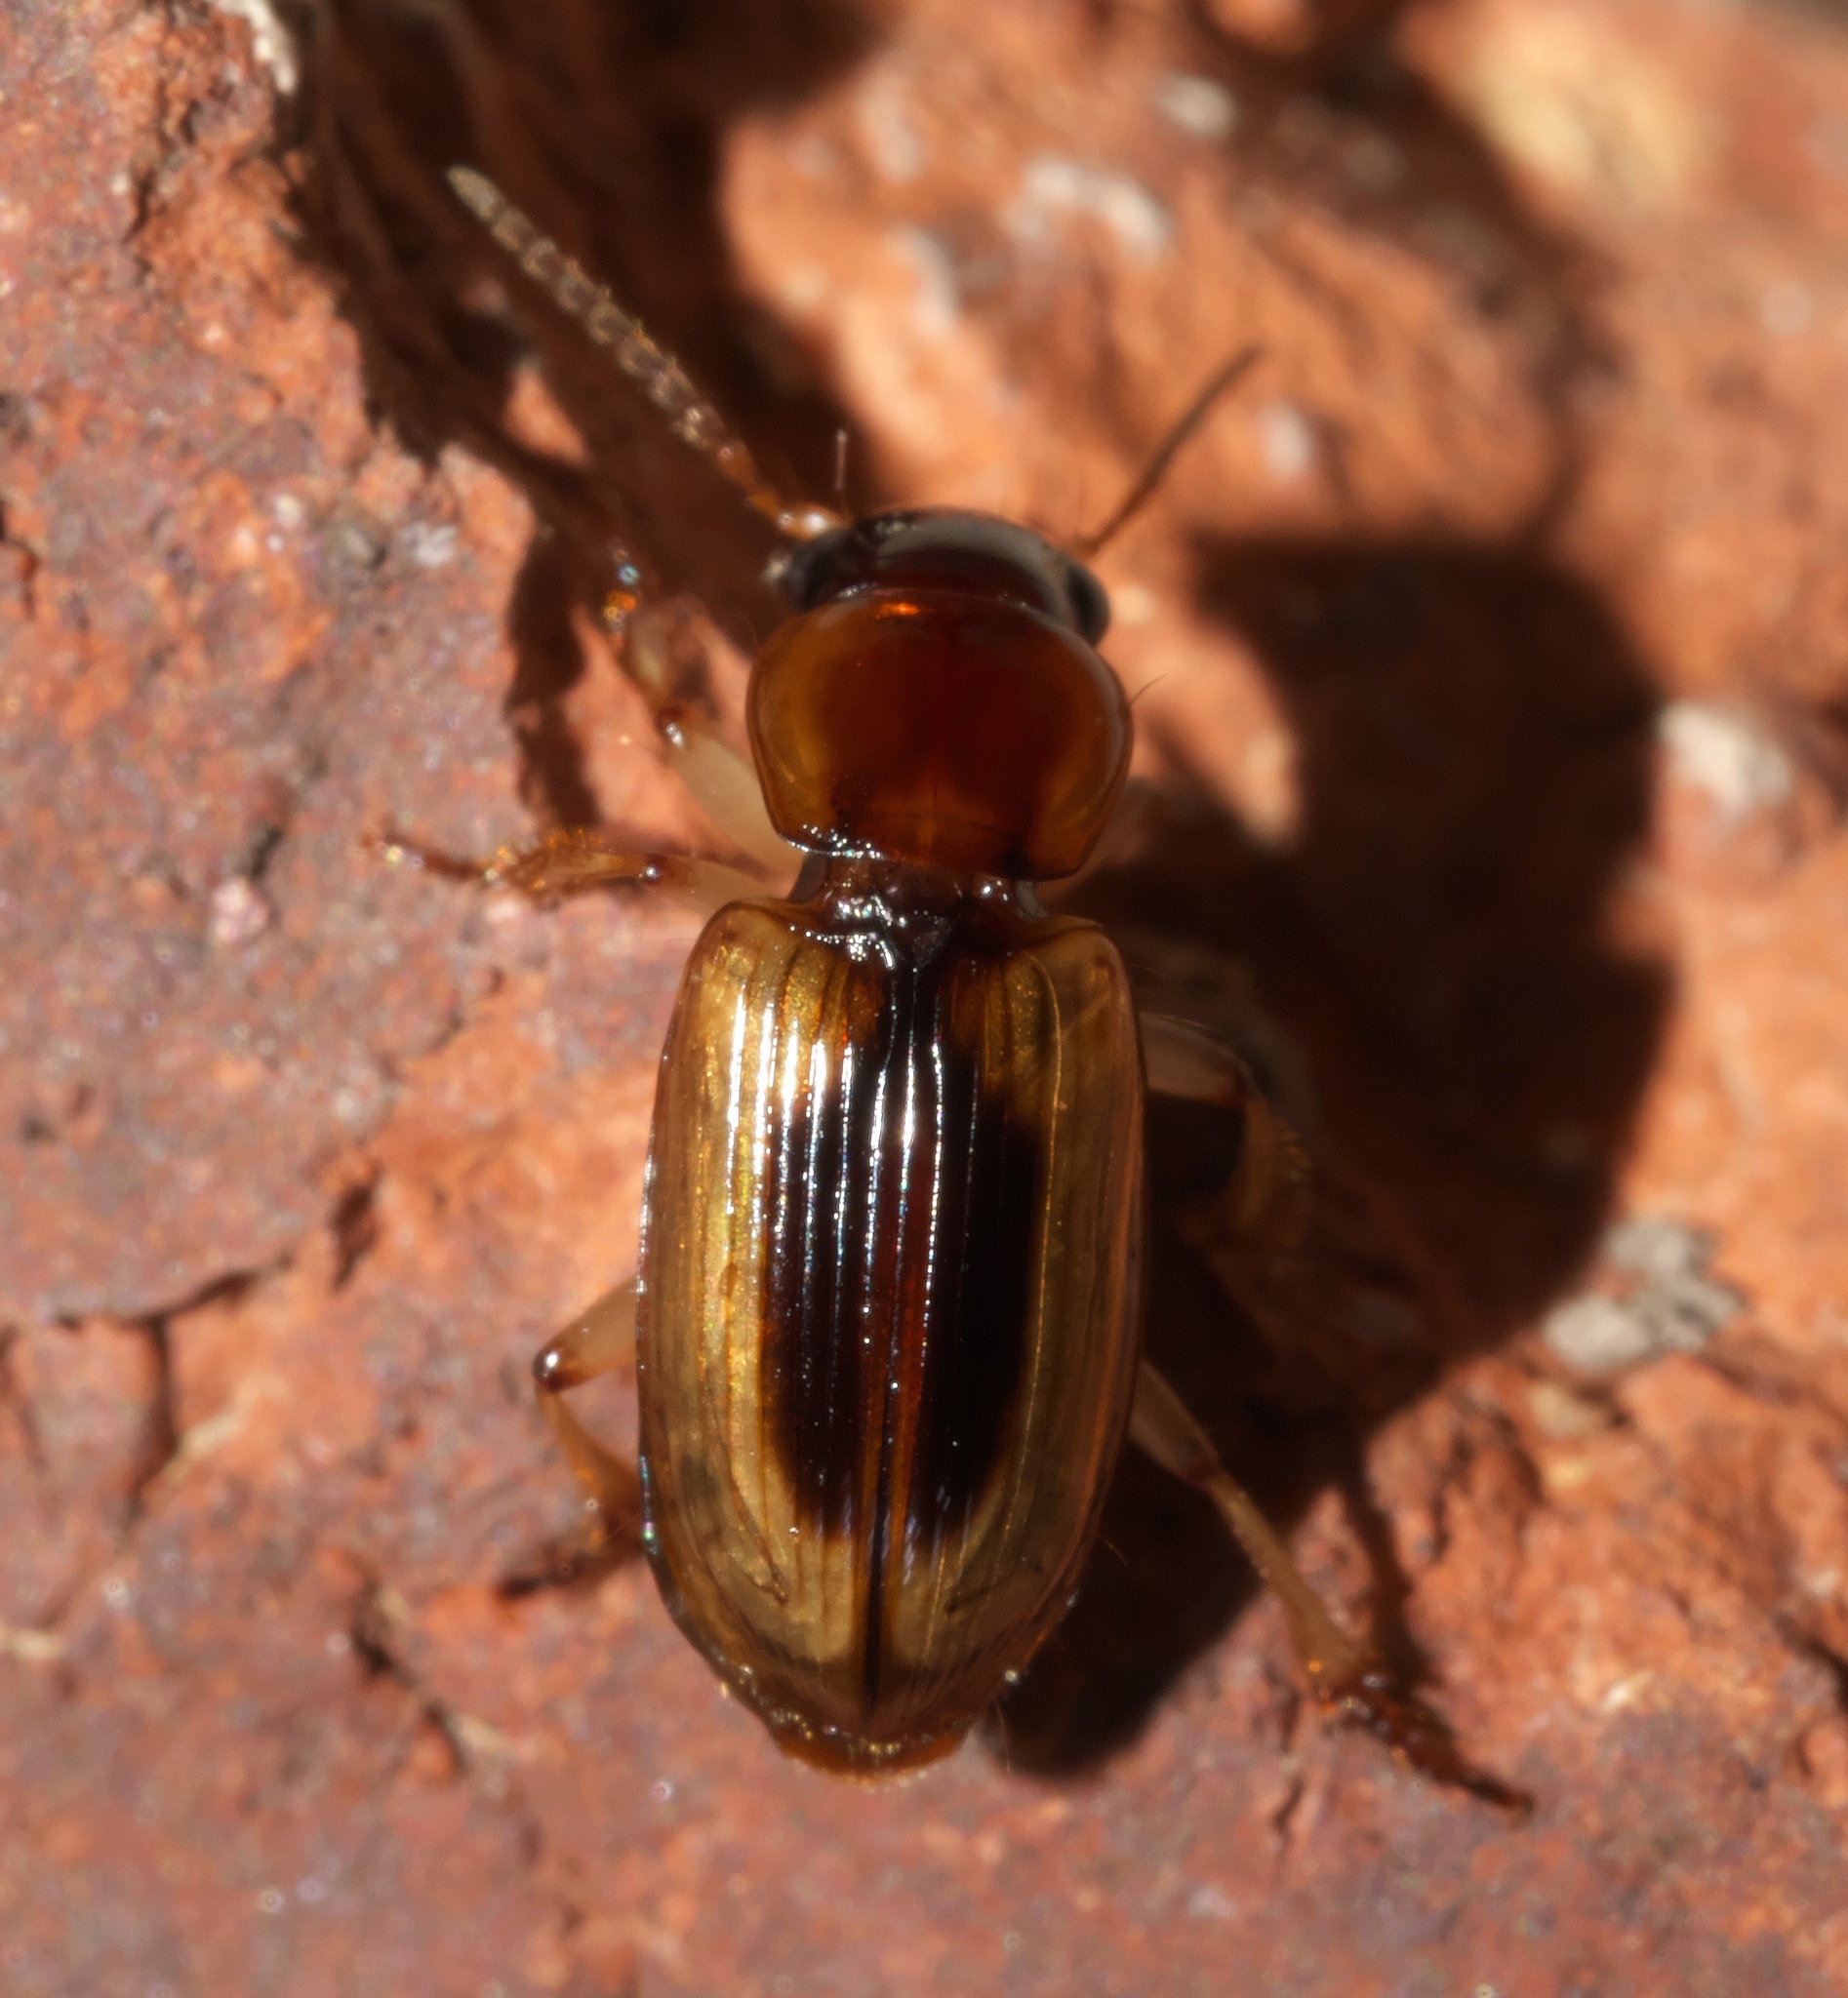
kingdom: Animalia
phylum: Arthropoda
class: Insecta
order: Coleoptera
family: Carabidae
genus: Stenolophus
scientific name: Stenolophus comma
